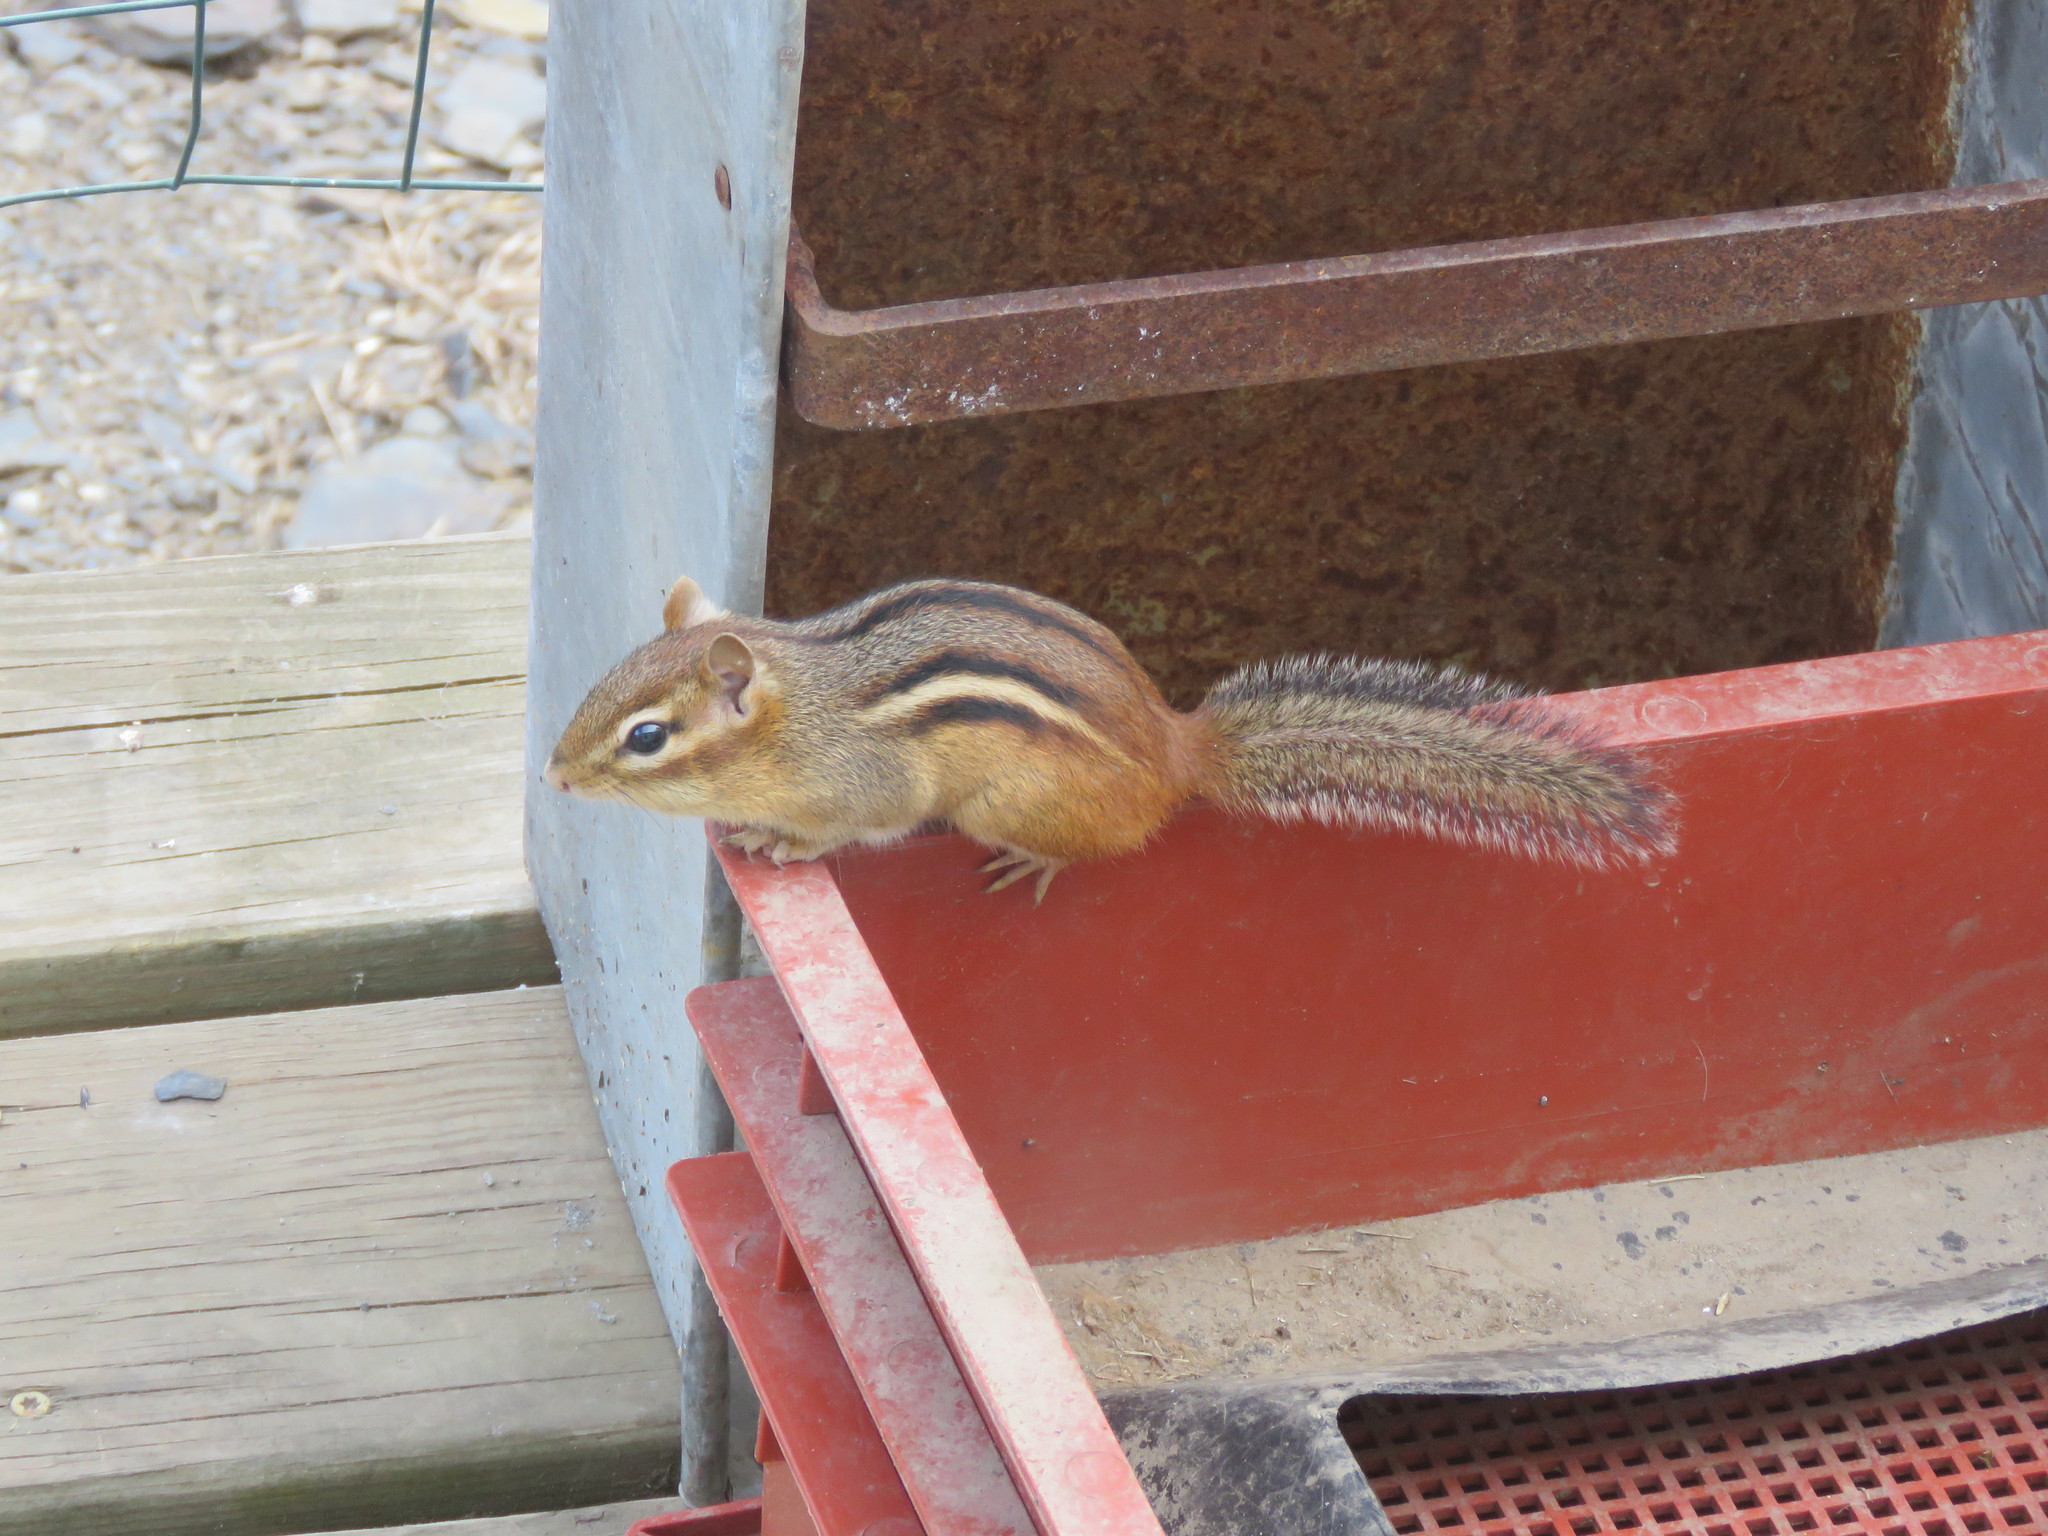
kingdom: Animalia
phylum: Chordata
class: Mammalia
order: Rodentia
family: Sciuridae
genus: Tamias
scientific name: Tamias striatus
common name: Eastern chipmunk
